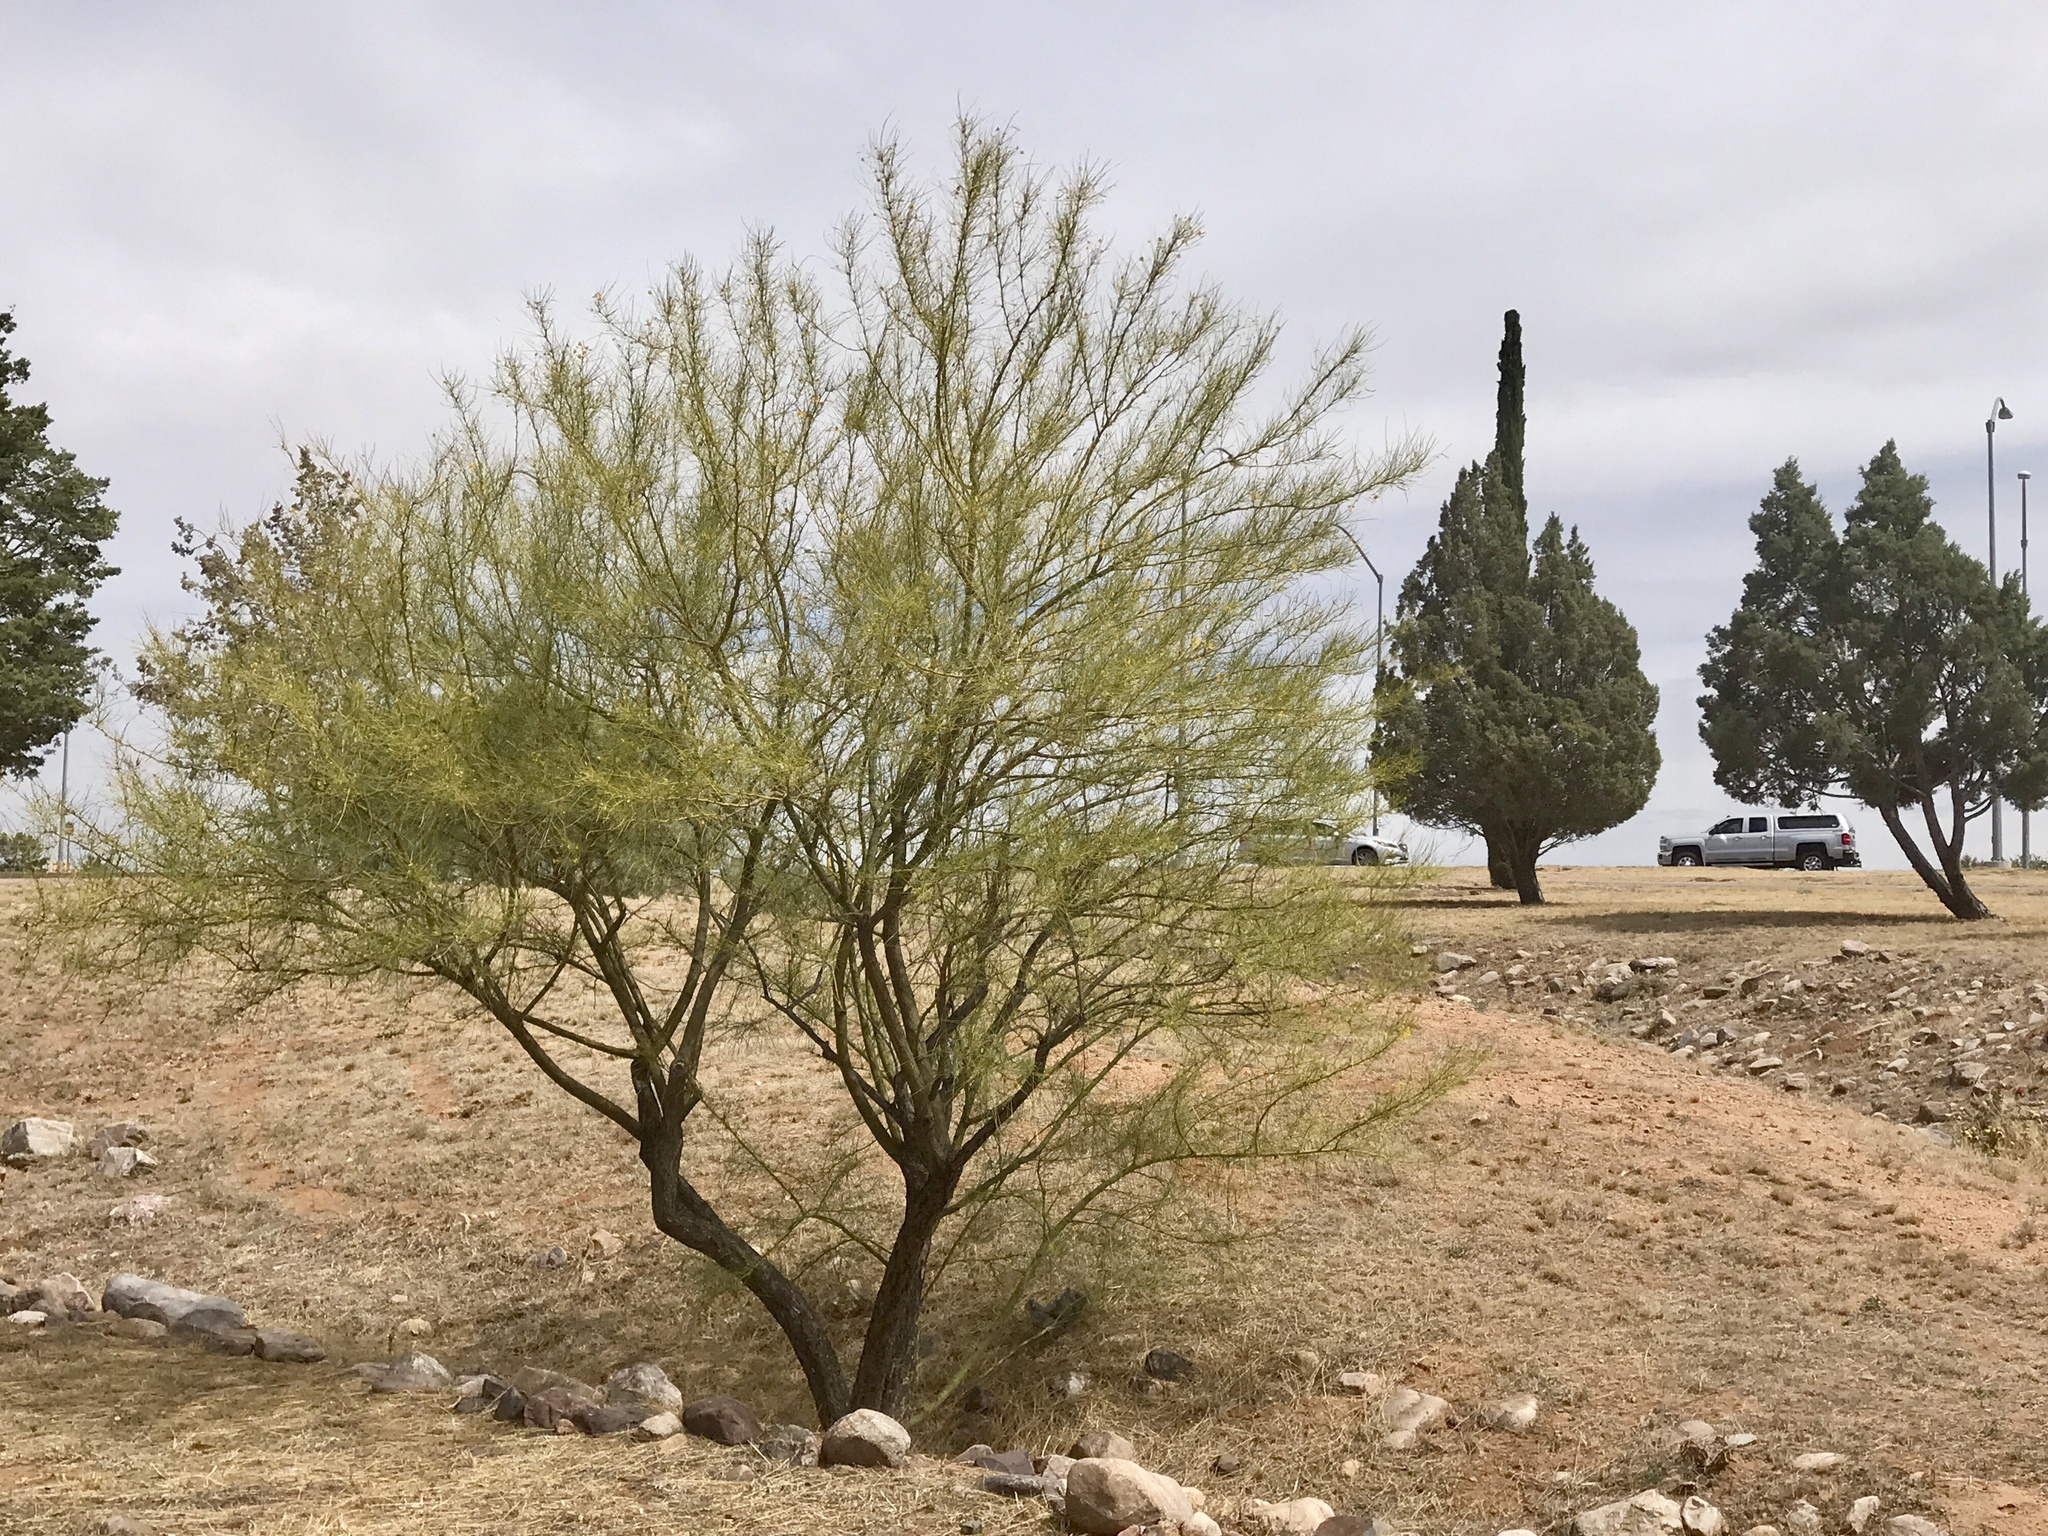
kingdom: Plantae
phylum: Tracheophyta
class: Magnoliopsida
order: Fabales
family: Fabaceae
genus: Parkinsonia
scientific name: Parkinsonia aculeata
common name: Jerusalem thorn
